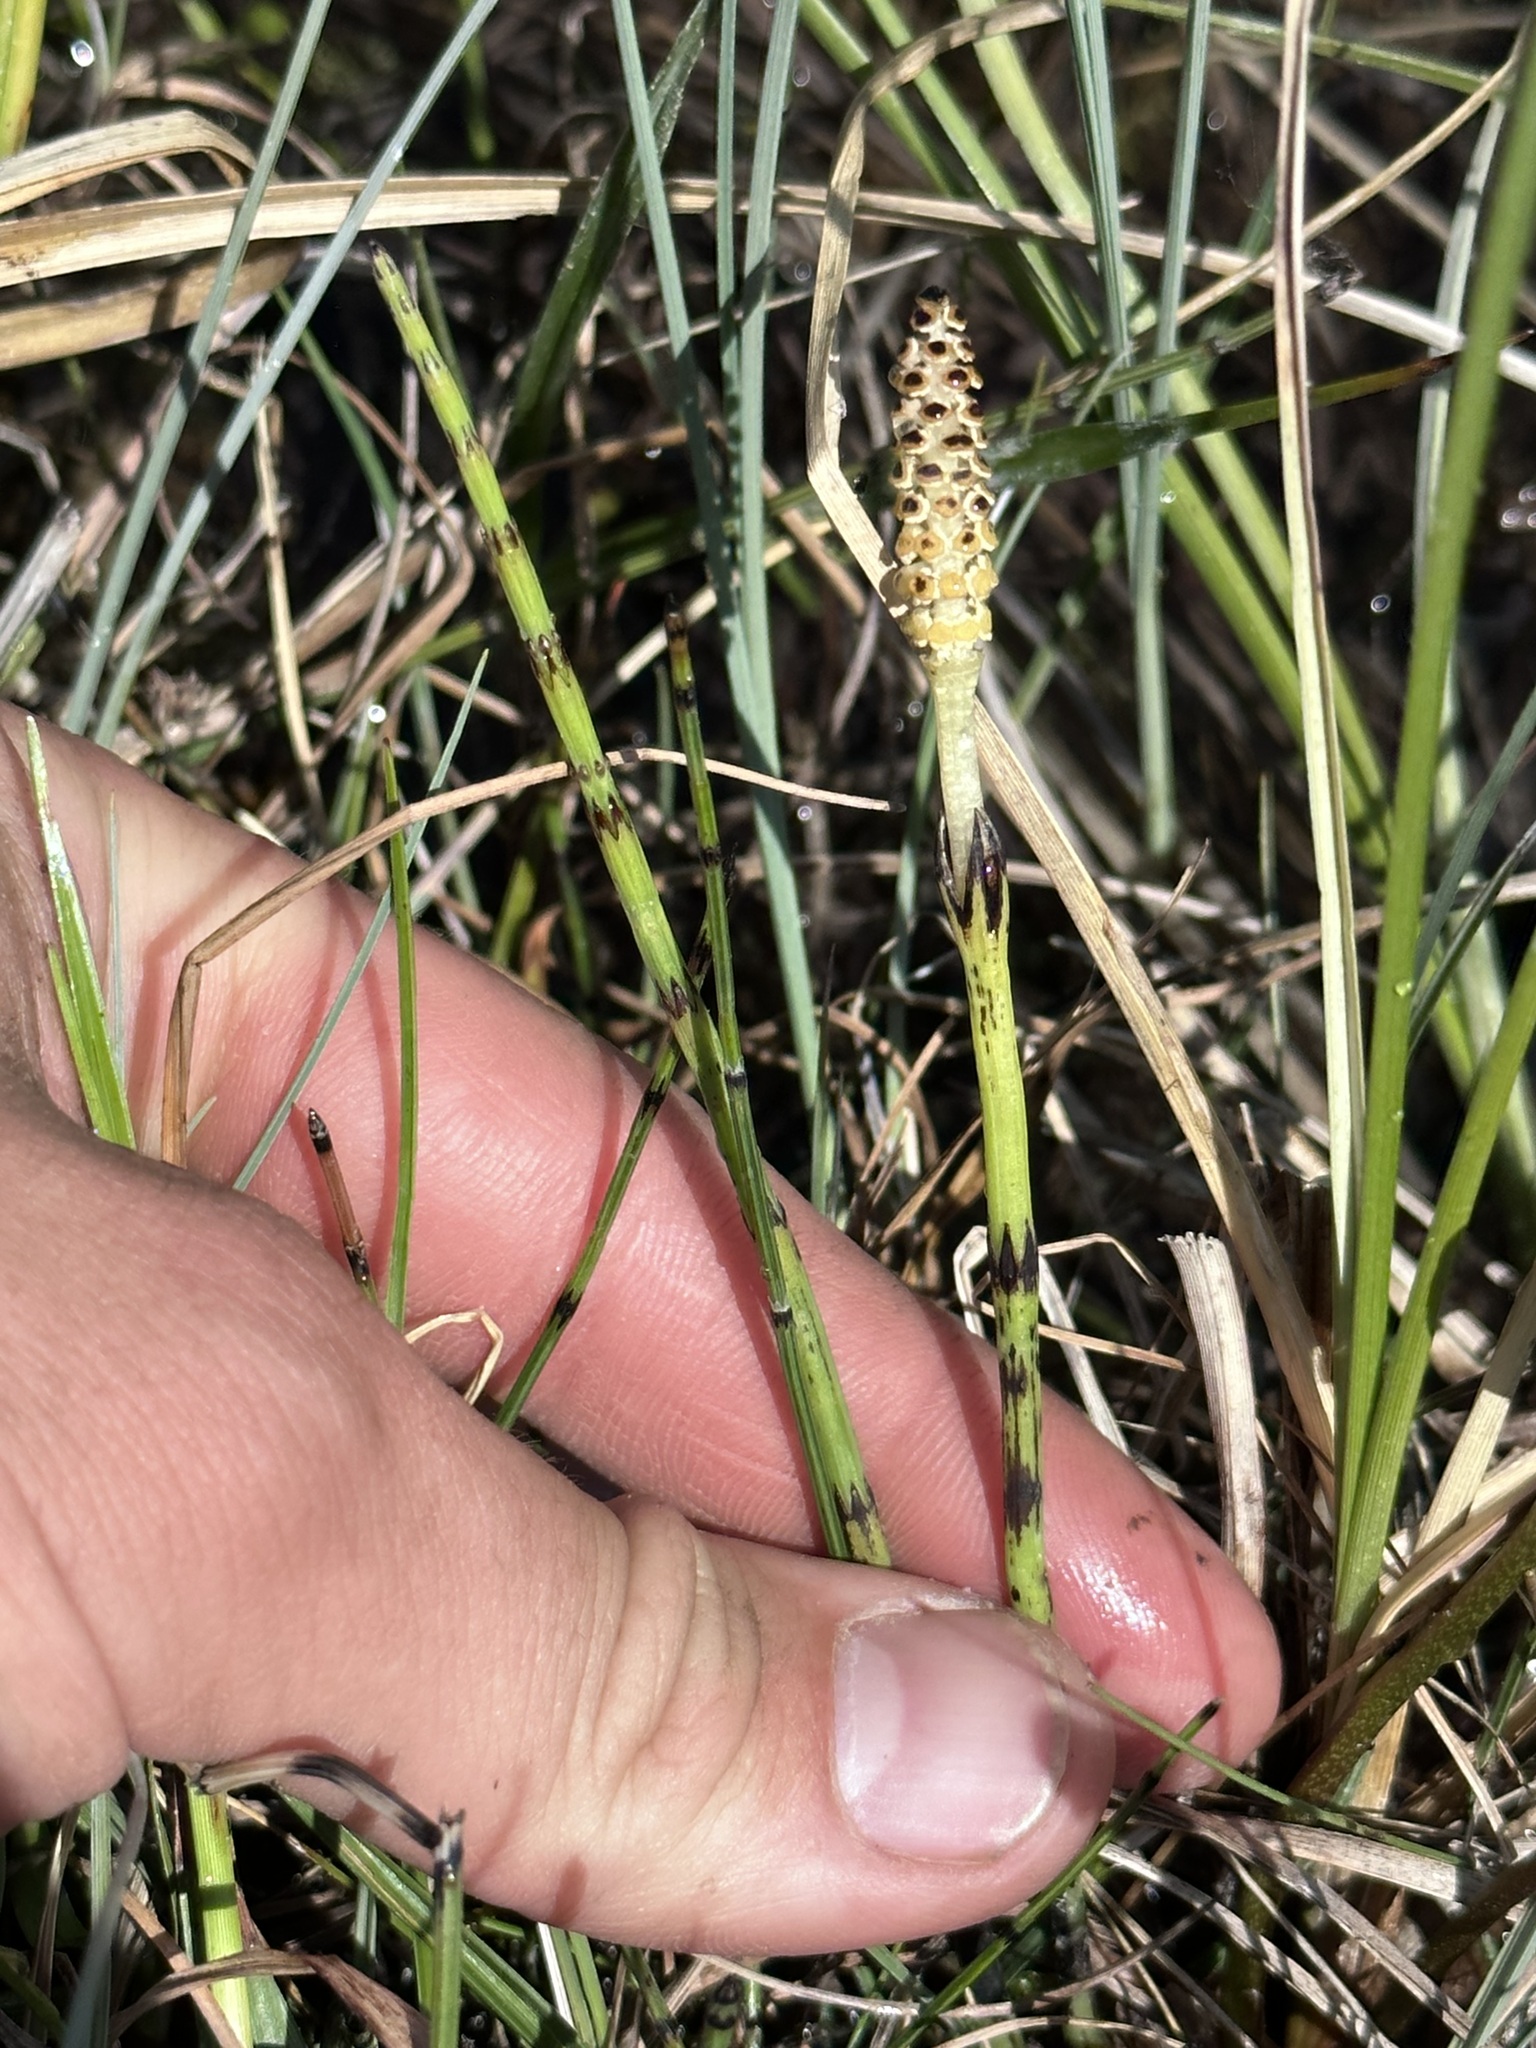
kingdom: Plantae
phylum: Tracheophyta
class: Polypodiopsida
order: Equisetales
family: Equisetaceae
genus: Equisetum
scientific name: Equisetum palustre
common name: Marsh horsetail
